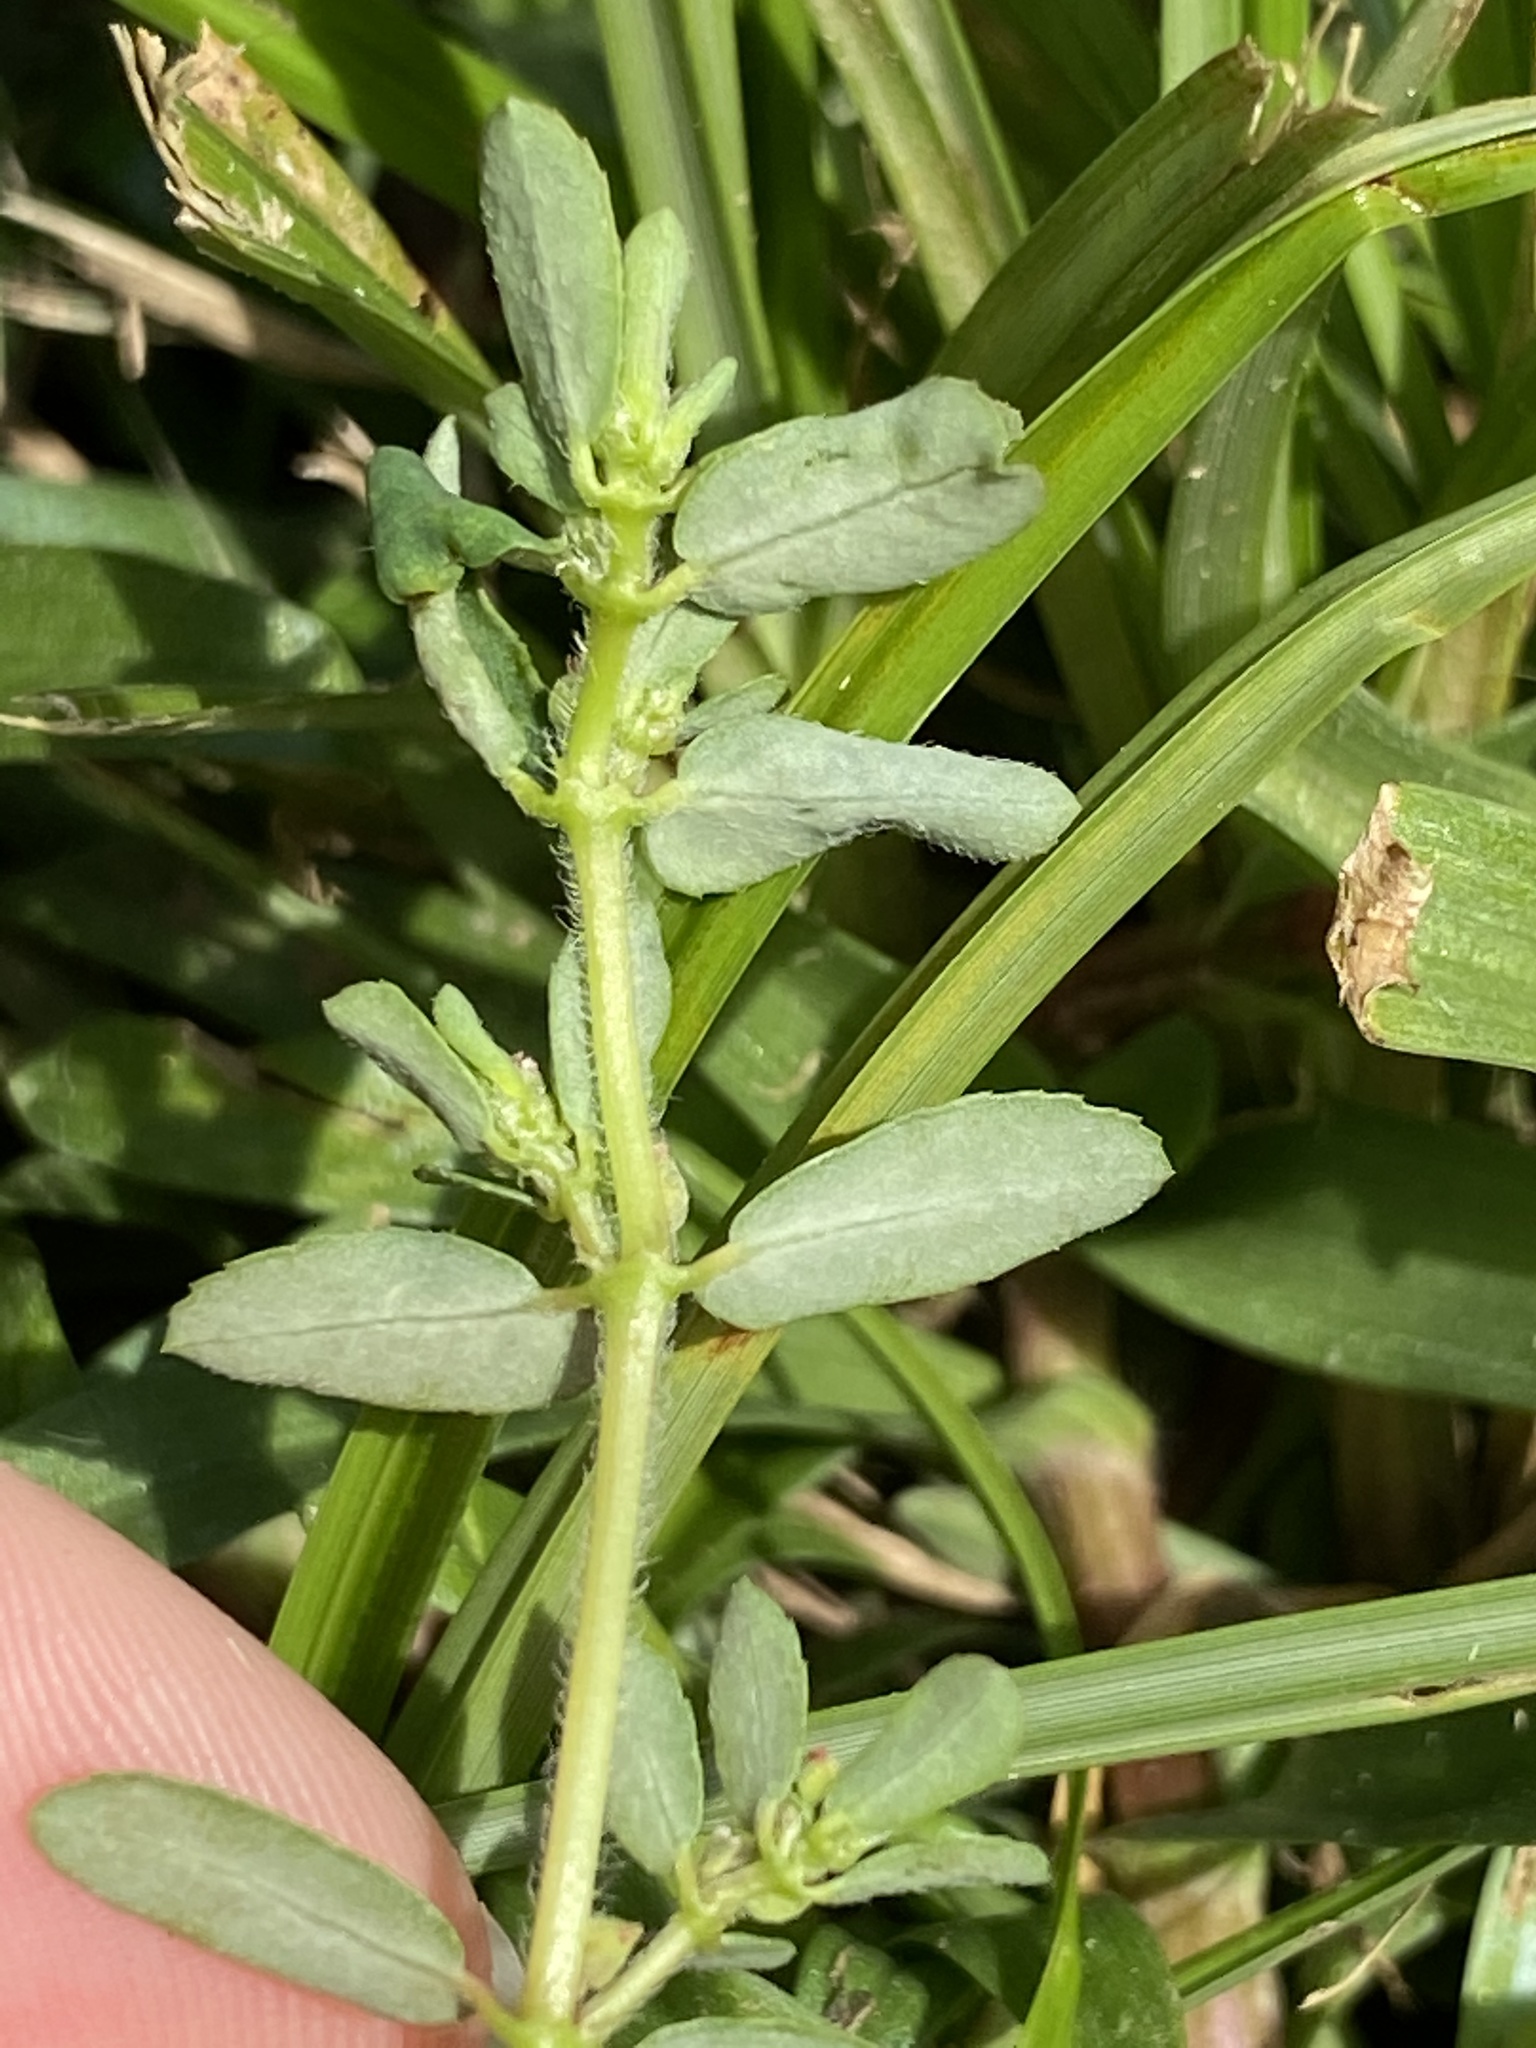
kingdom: Plantae
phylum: Tracheophyta
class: Magnoliopsida
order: Malpighiales
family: Euphorbiaceae
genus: Euphorbia
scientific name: Euphorbia maculata
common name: Spotted spurge
